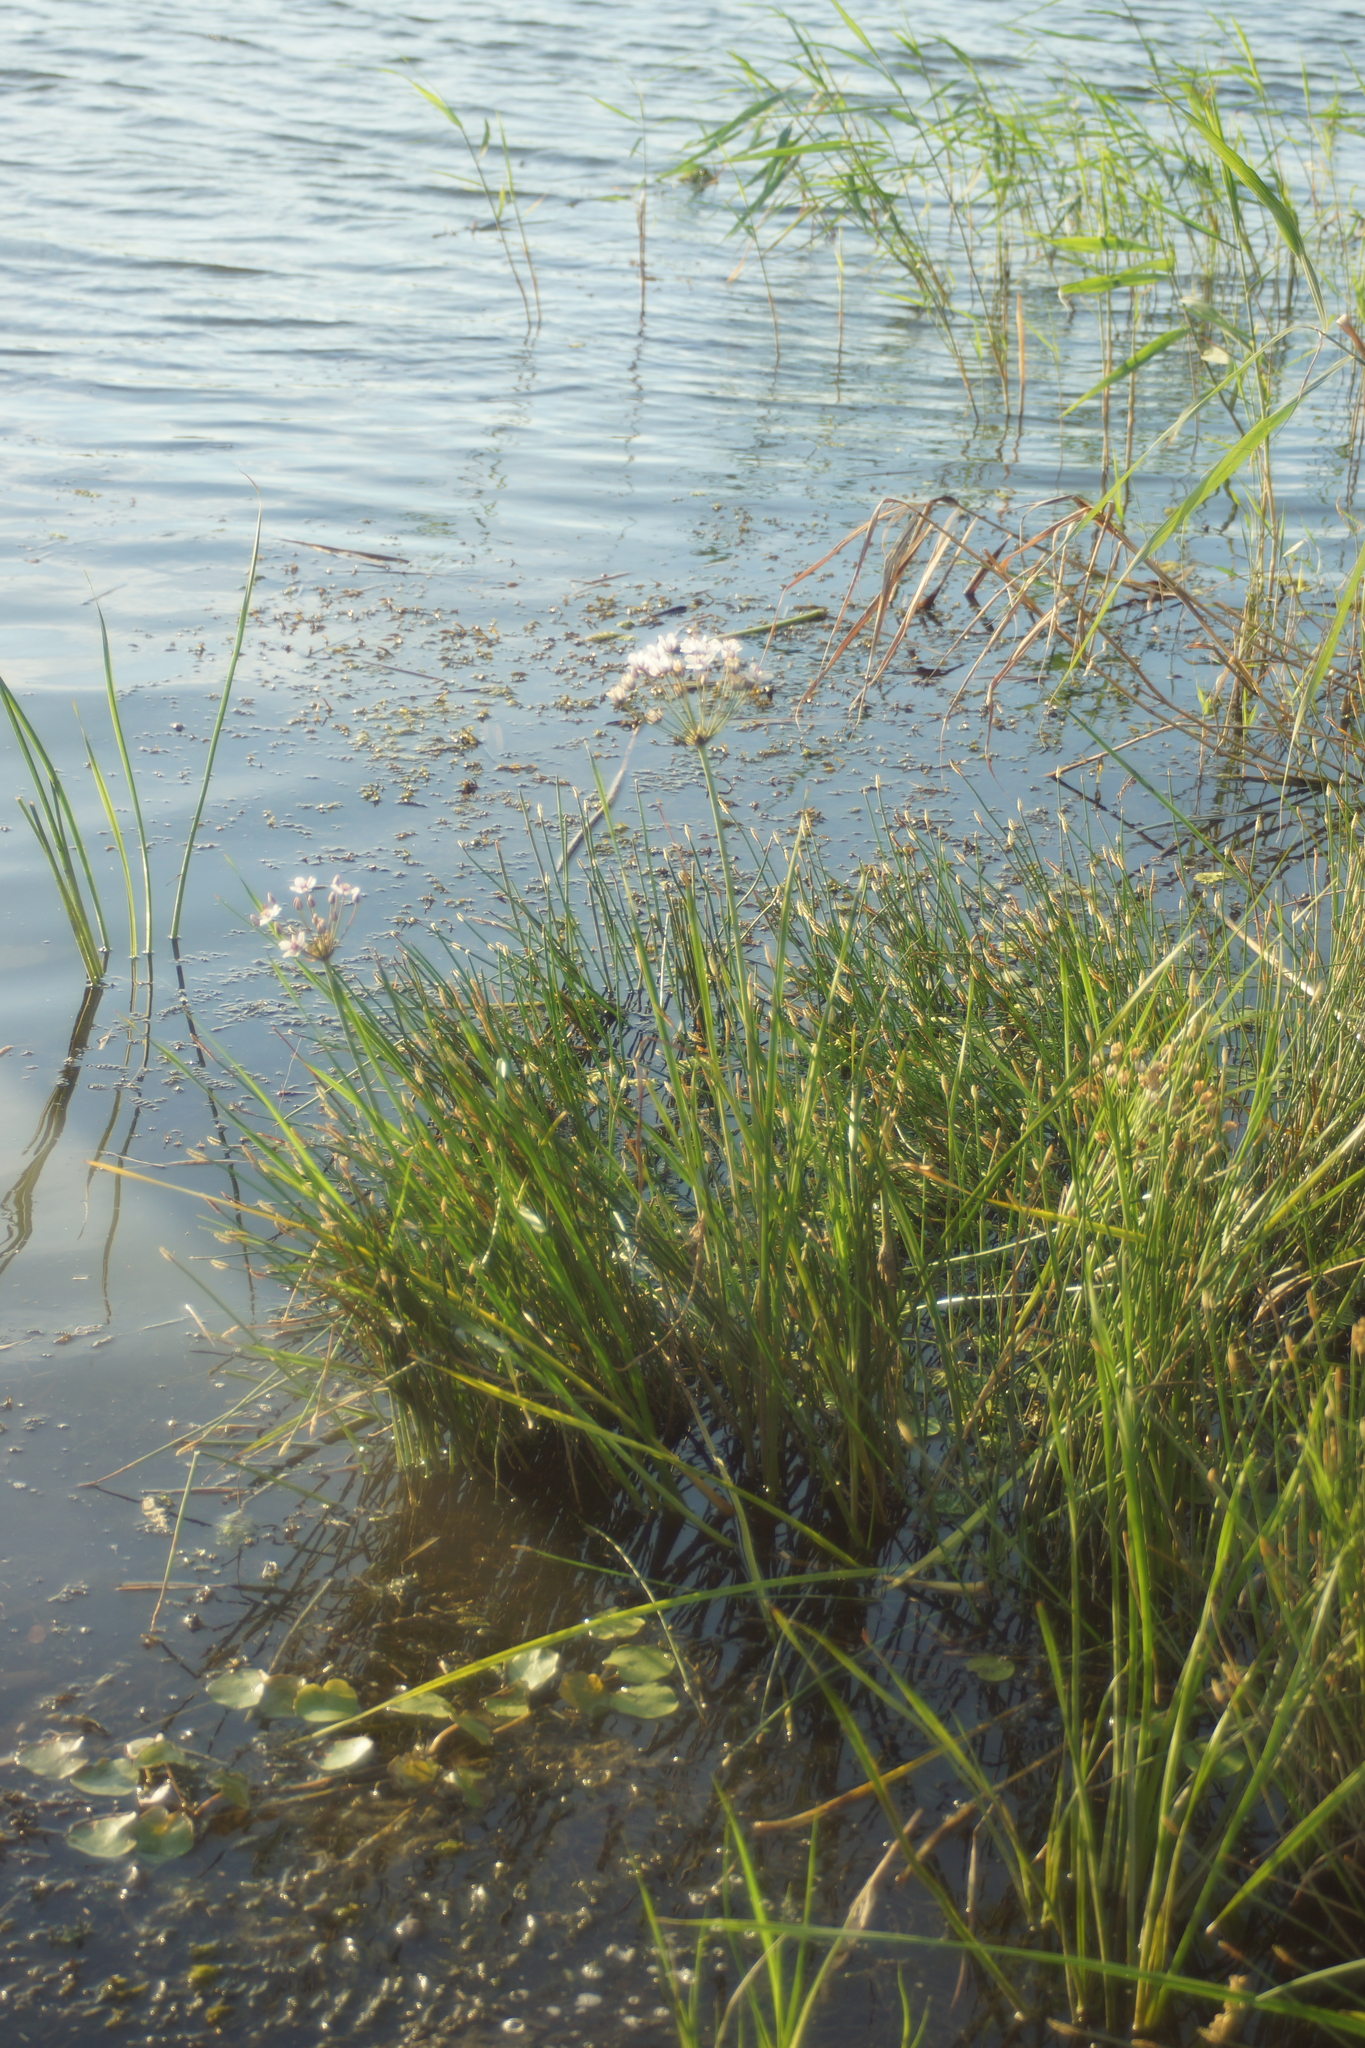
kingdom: Plantae
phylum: Tracheophyta
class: Liliopsida
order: Alismatales
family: Butomaceae
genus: Butomus
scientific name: Butomus umbellatus
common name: Flowering-rush
